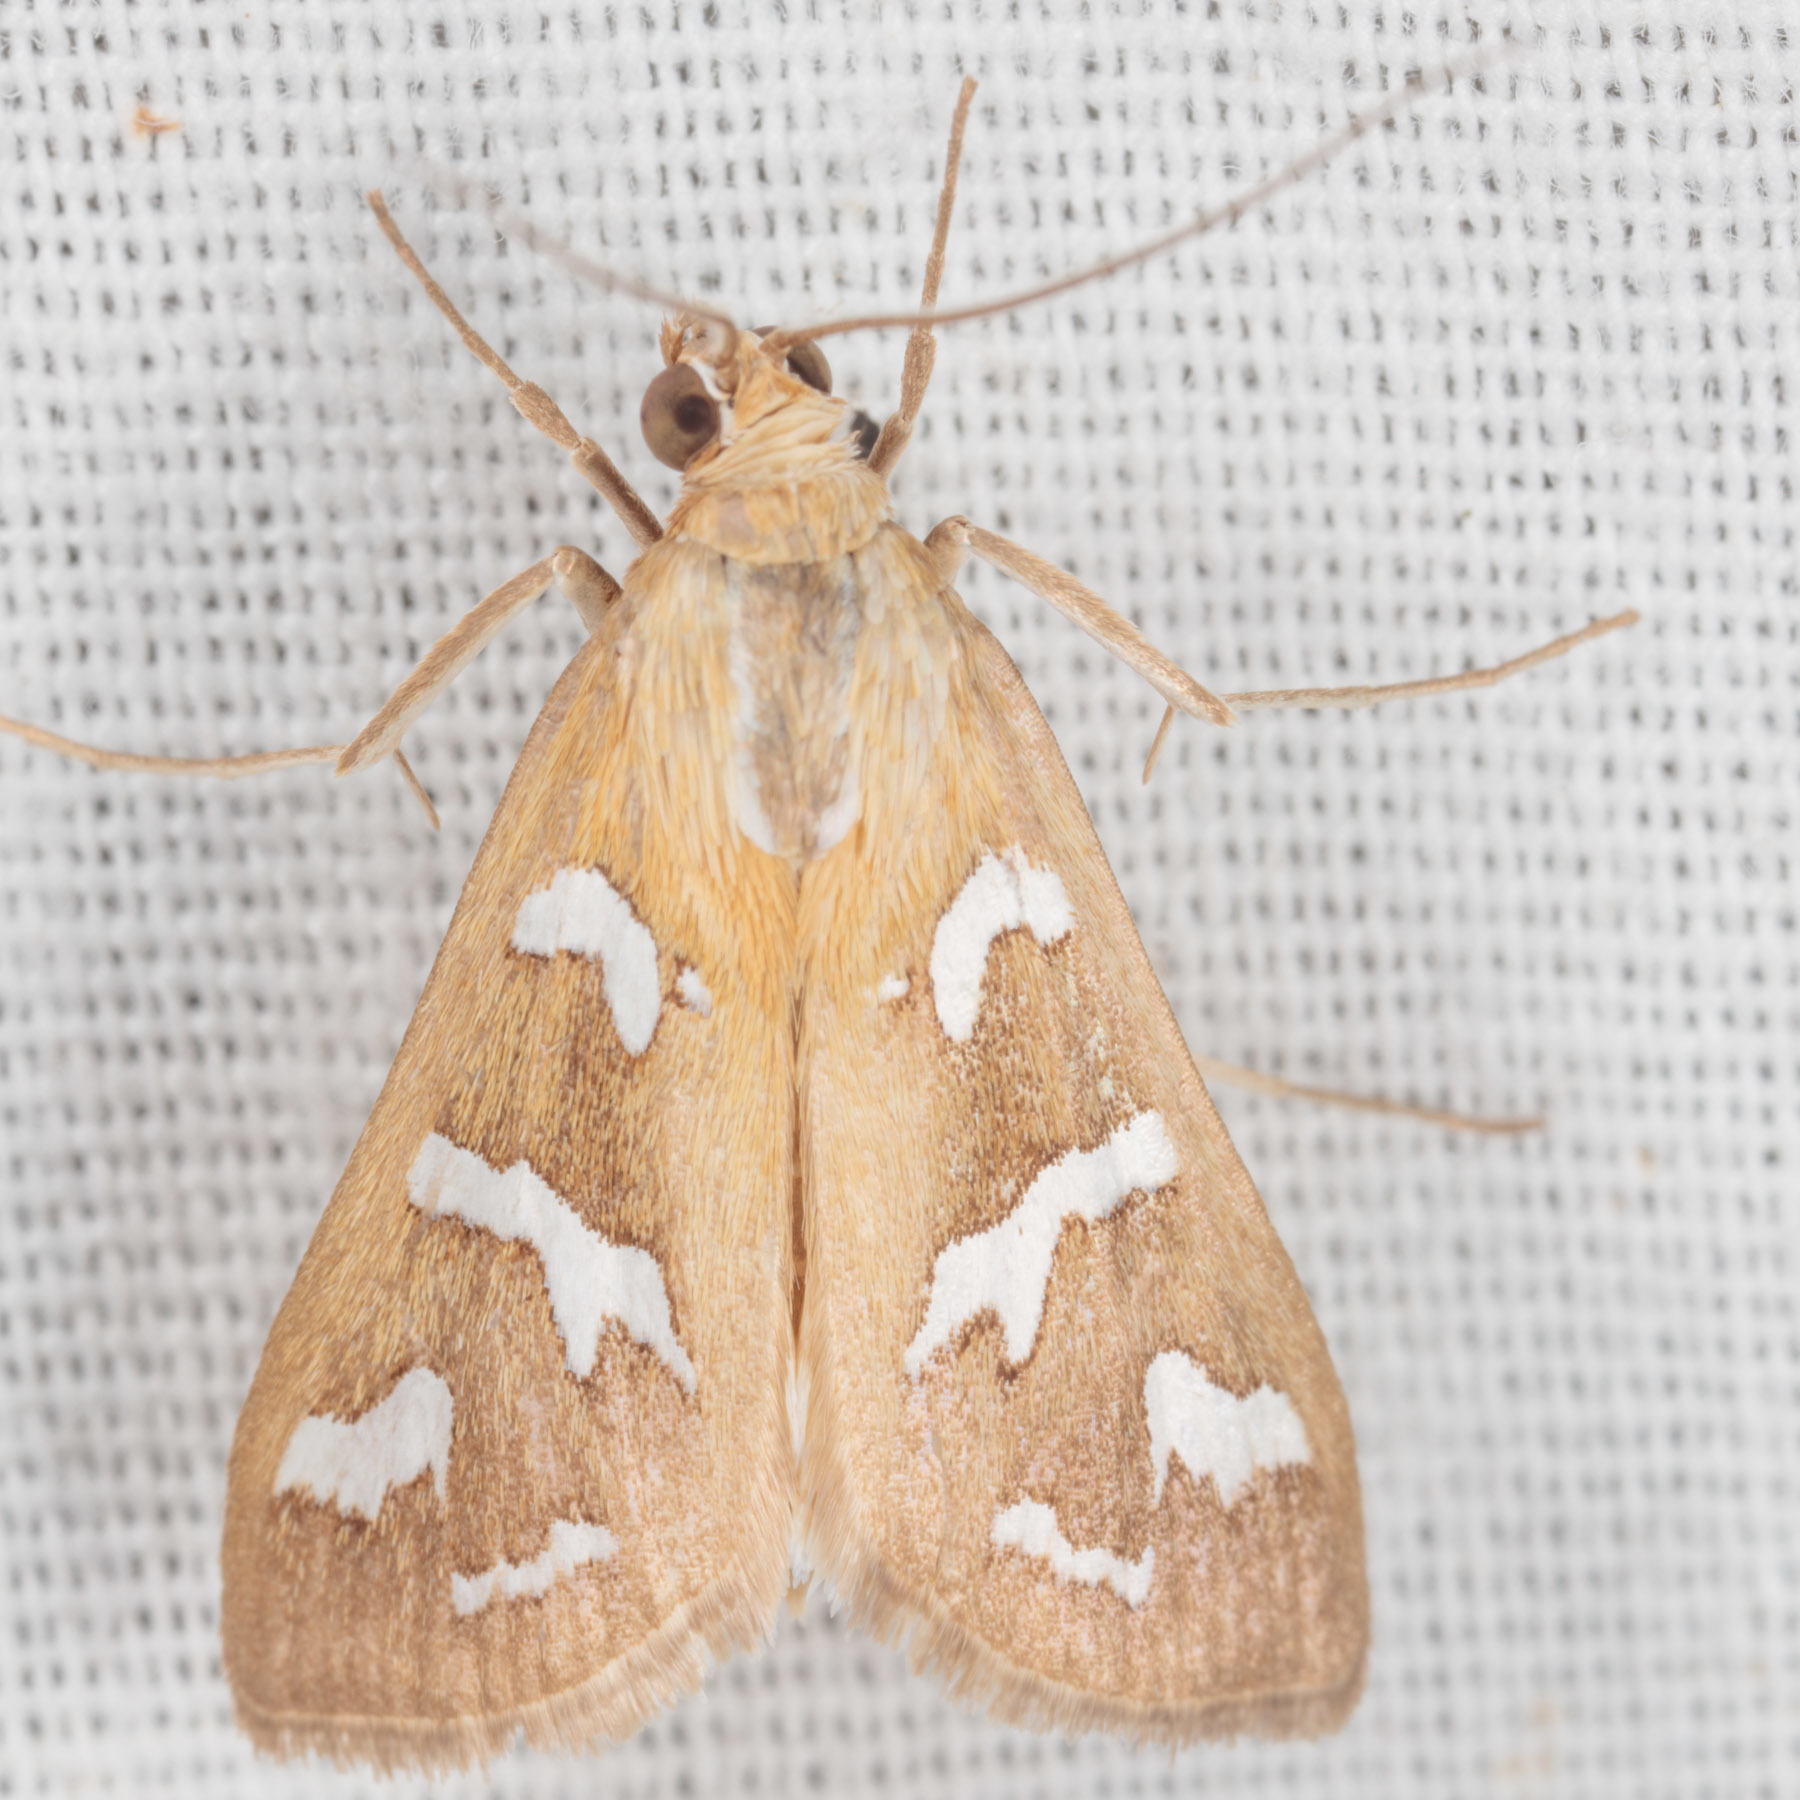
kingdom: Animalia
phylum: Arthropoda
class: Insecta
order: Lepidoptera
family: Crambidae
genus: Diastictis
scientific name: Diastictis fracturalis
